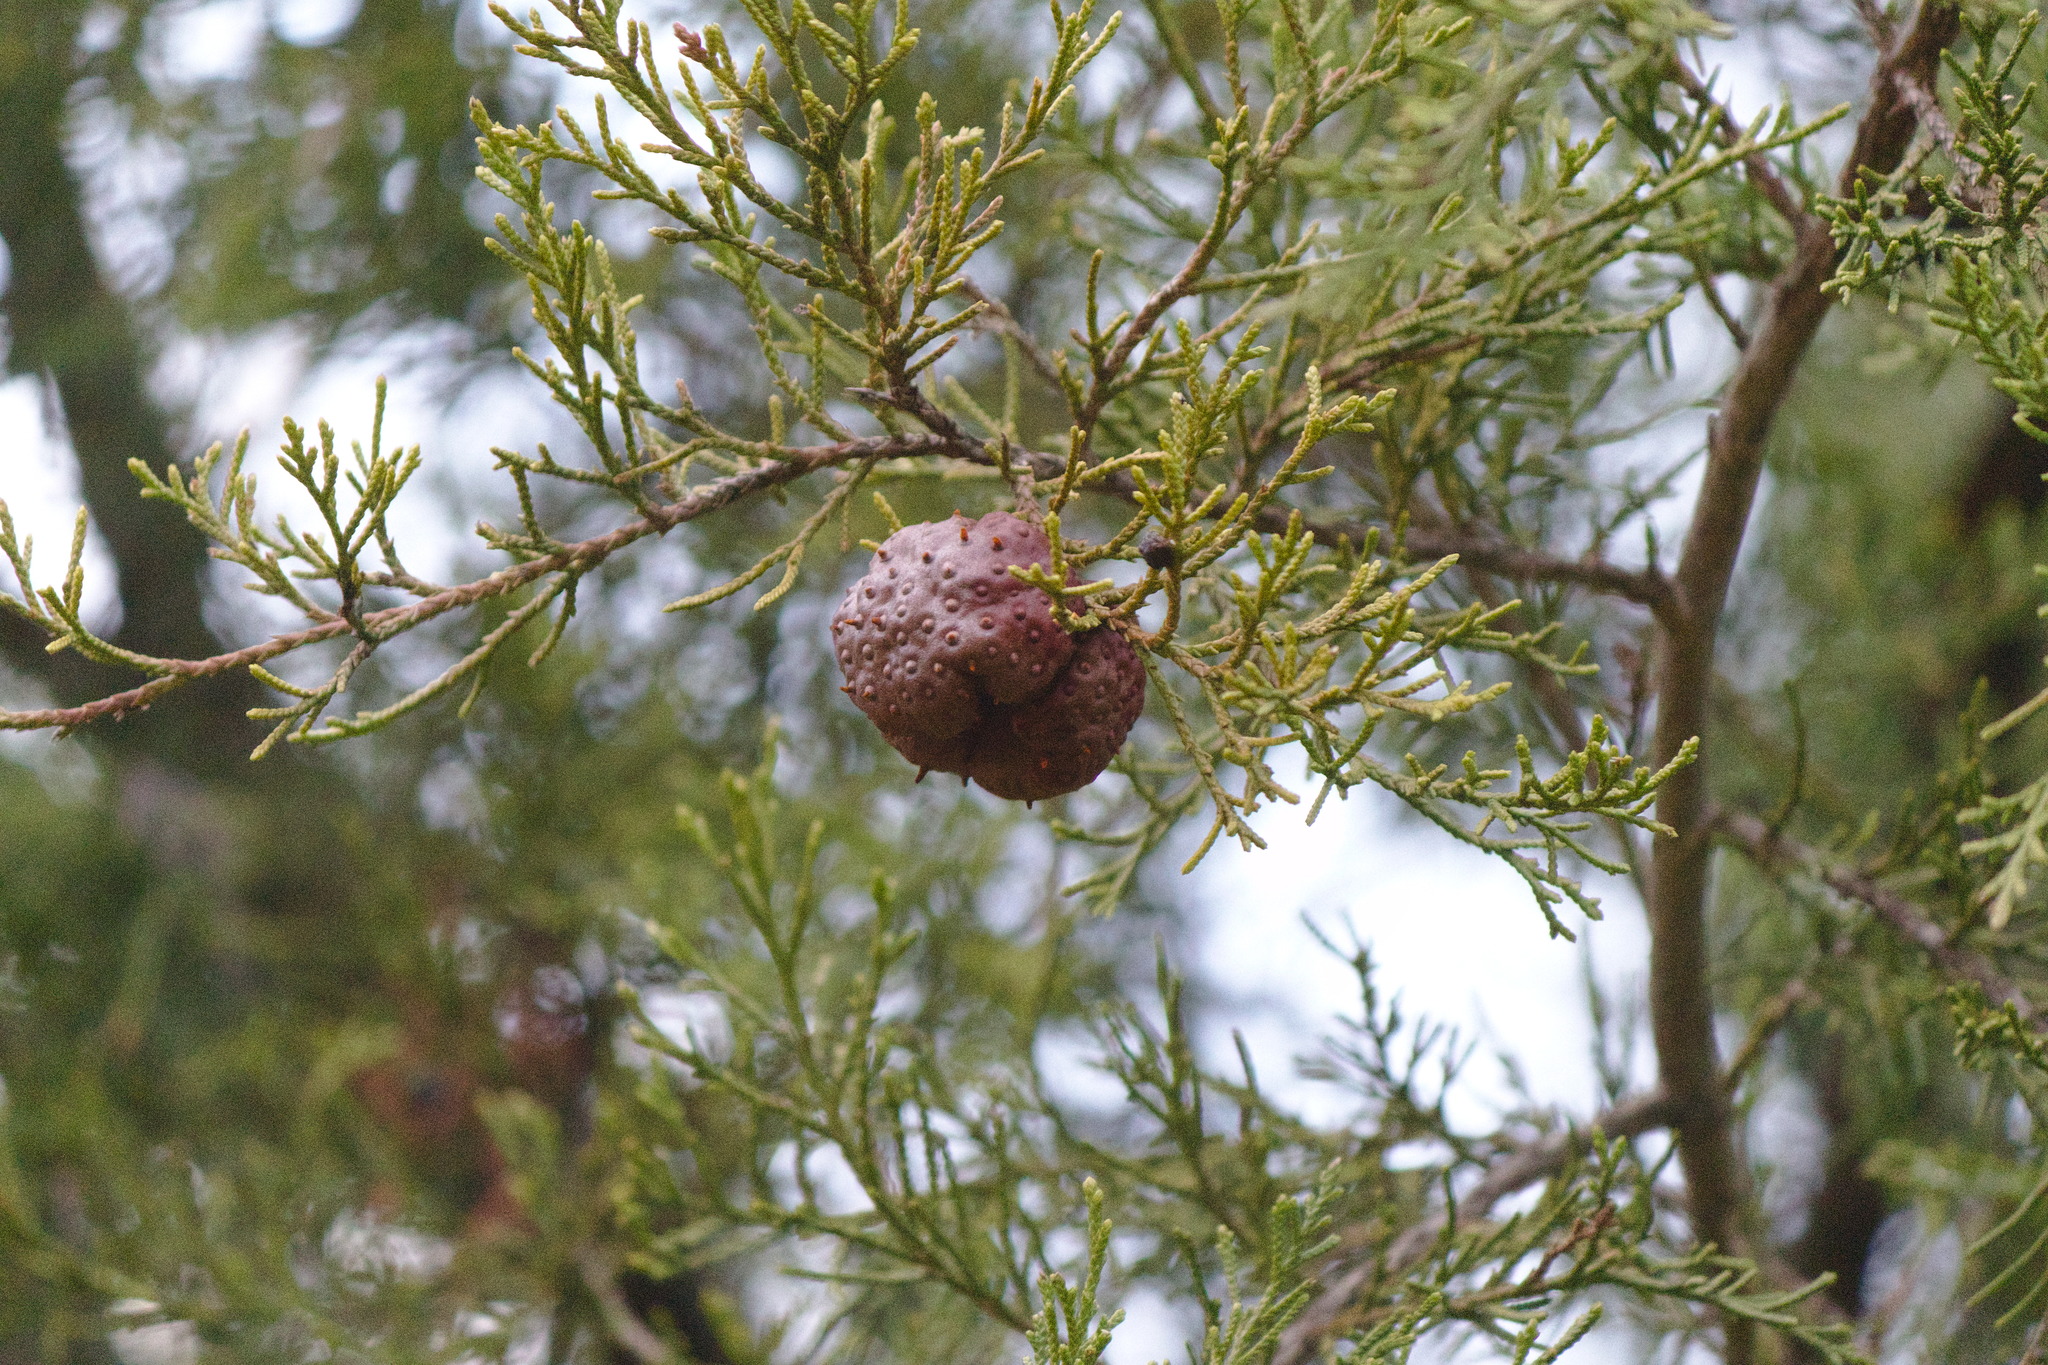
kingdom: Fungi
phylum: Basidiomycota
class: Pucciniomycetes
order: Pucciniales
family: Gymnosporangiaceae
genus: Gymnosporangium
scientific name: Gymnosporangium juniperi-virginianae
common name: Juniper-apple rust
